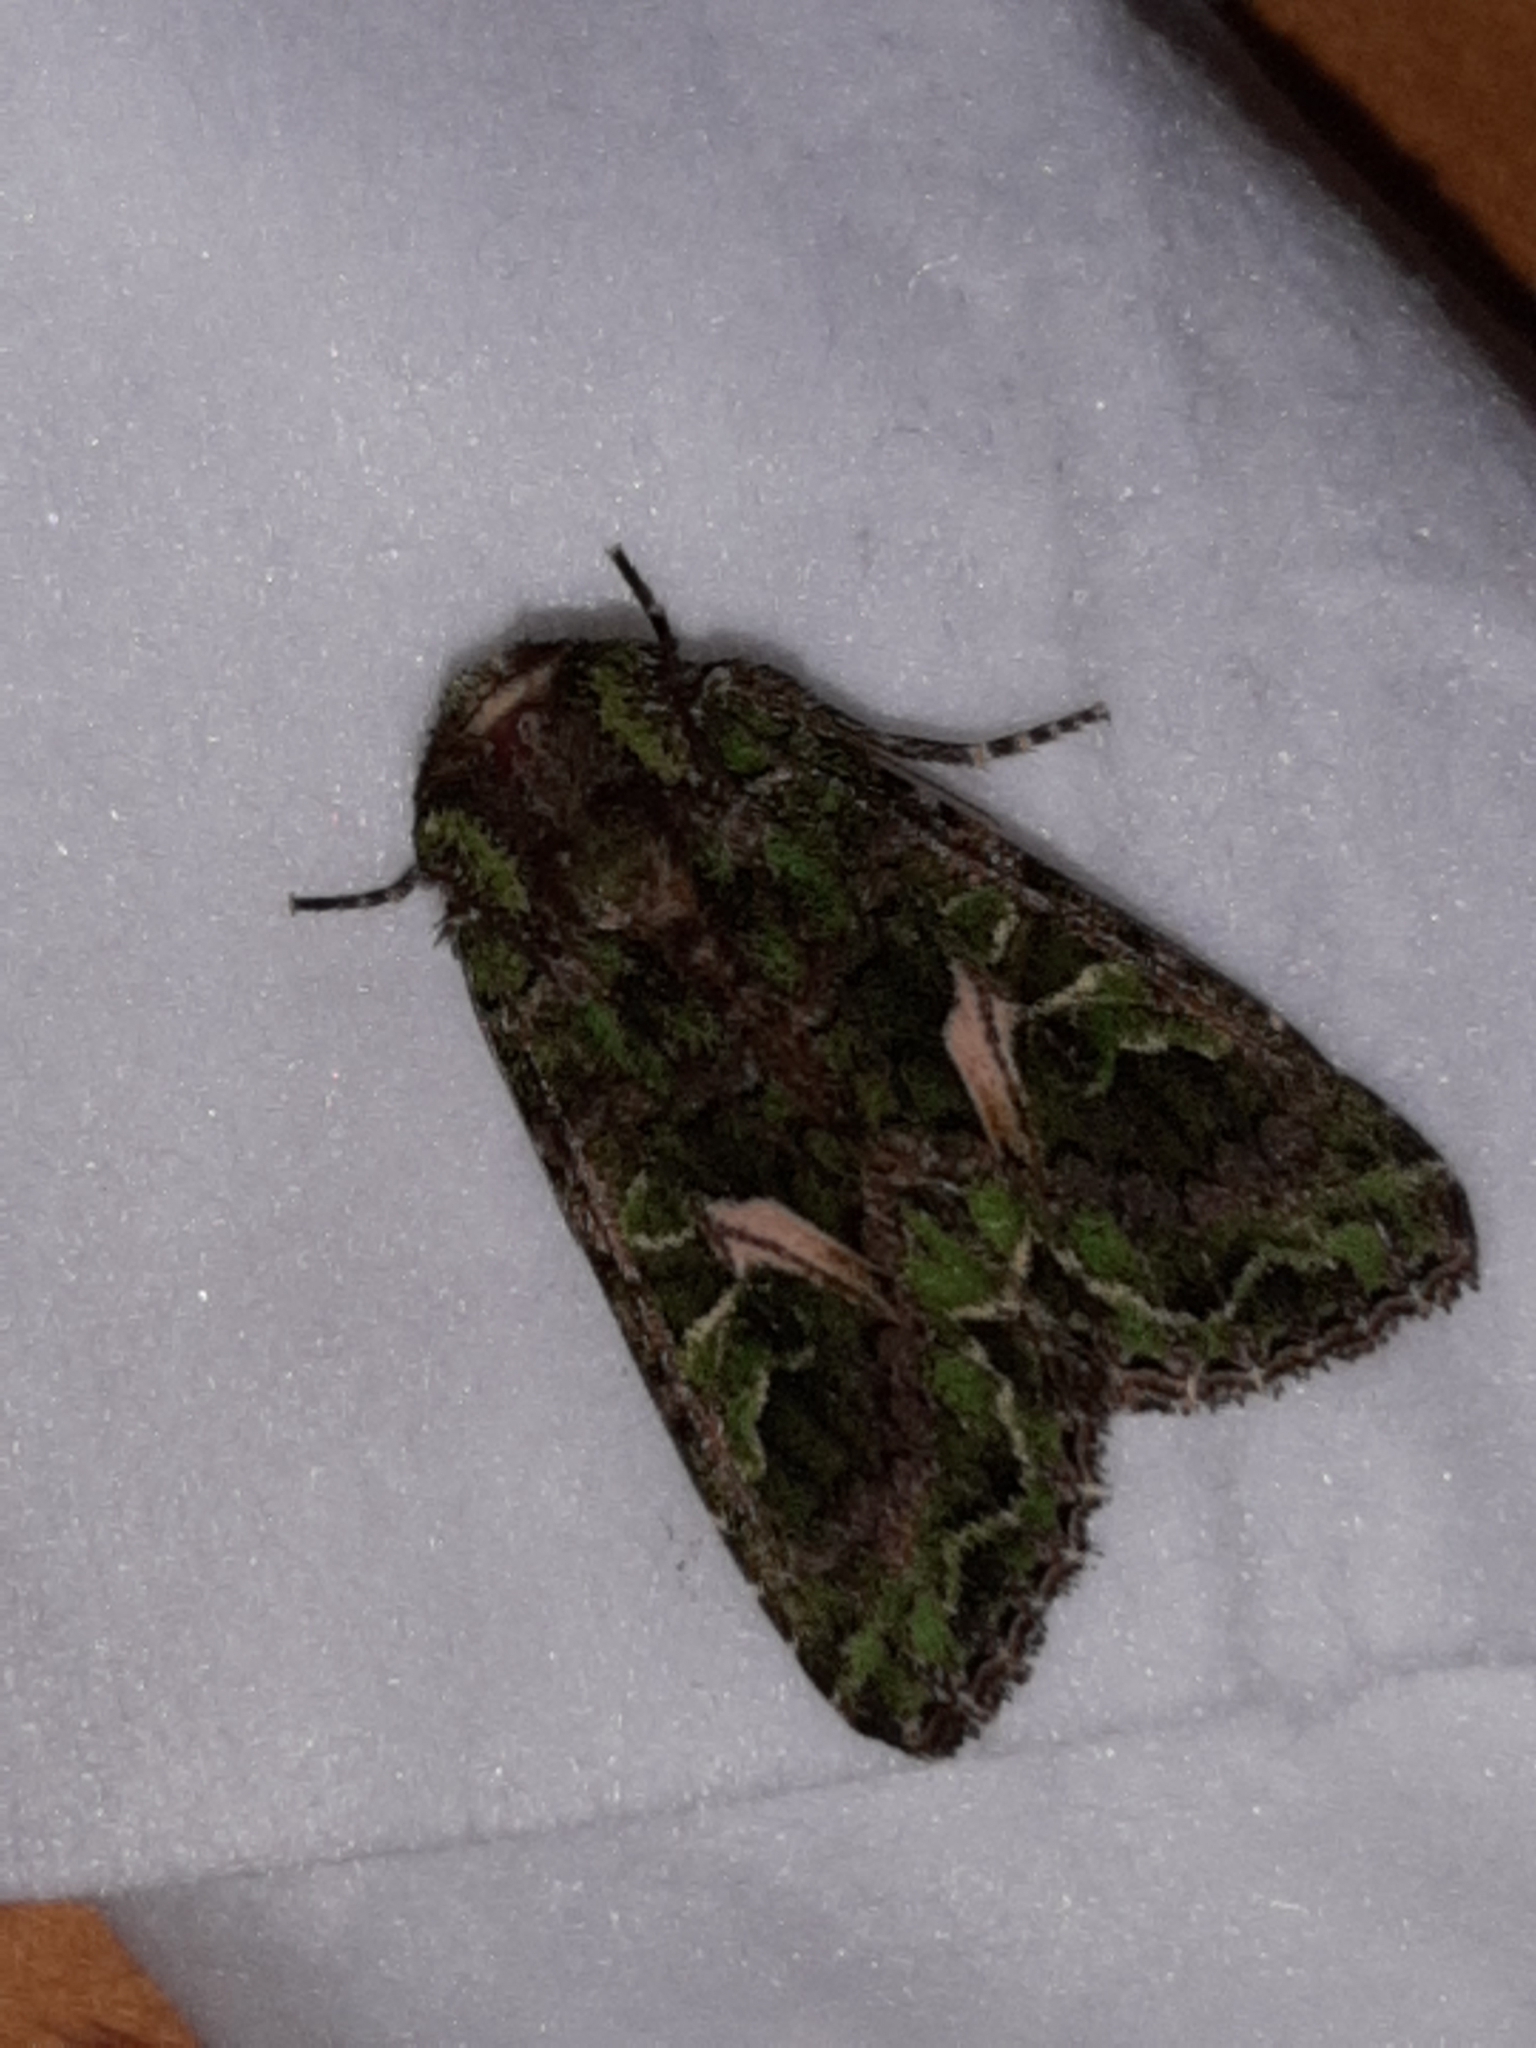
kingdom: Animalia
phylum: Arthropoda
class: Insecta
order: Lepidoptera
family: Noctuidae
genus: Trachea
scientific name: Trachea atriplicis
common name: Orache moth
